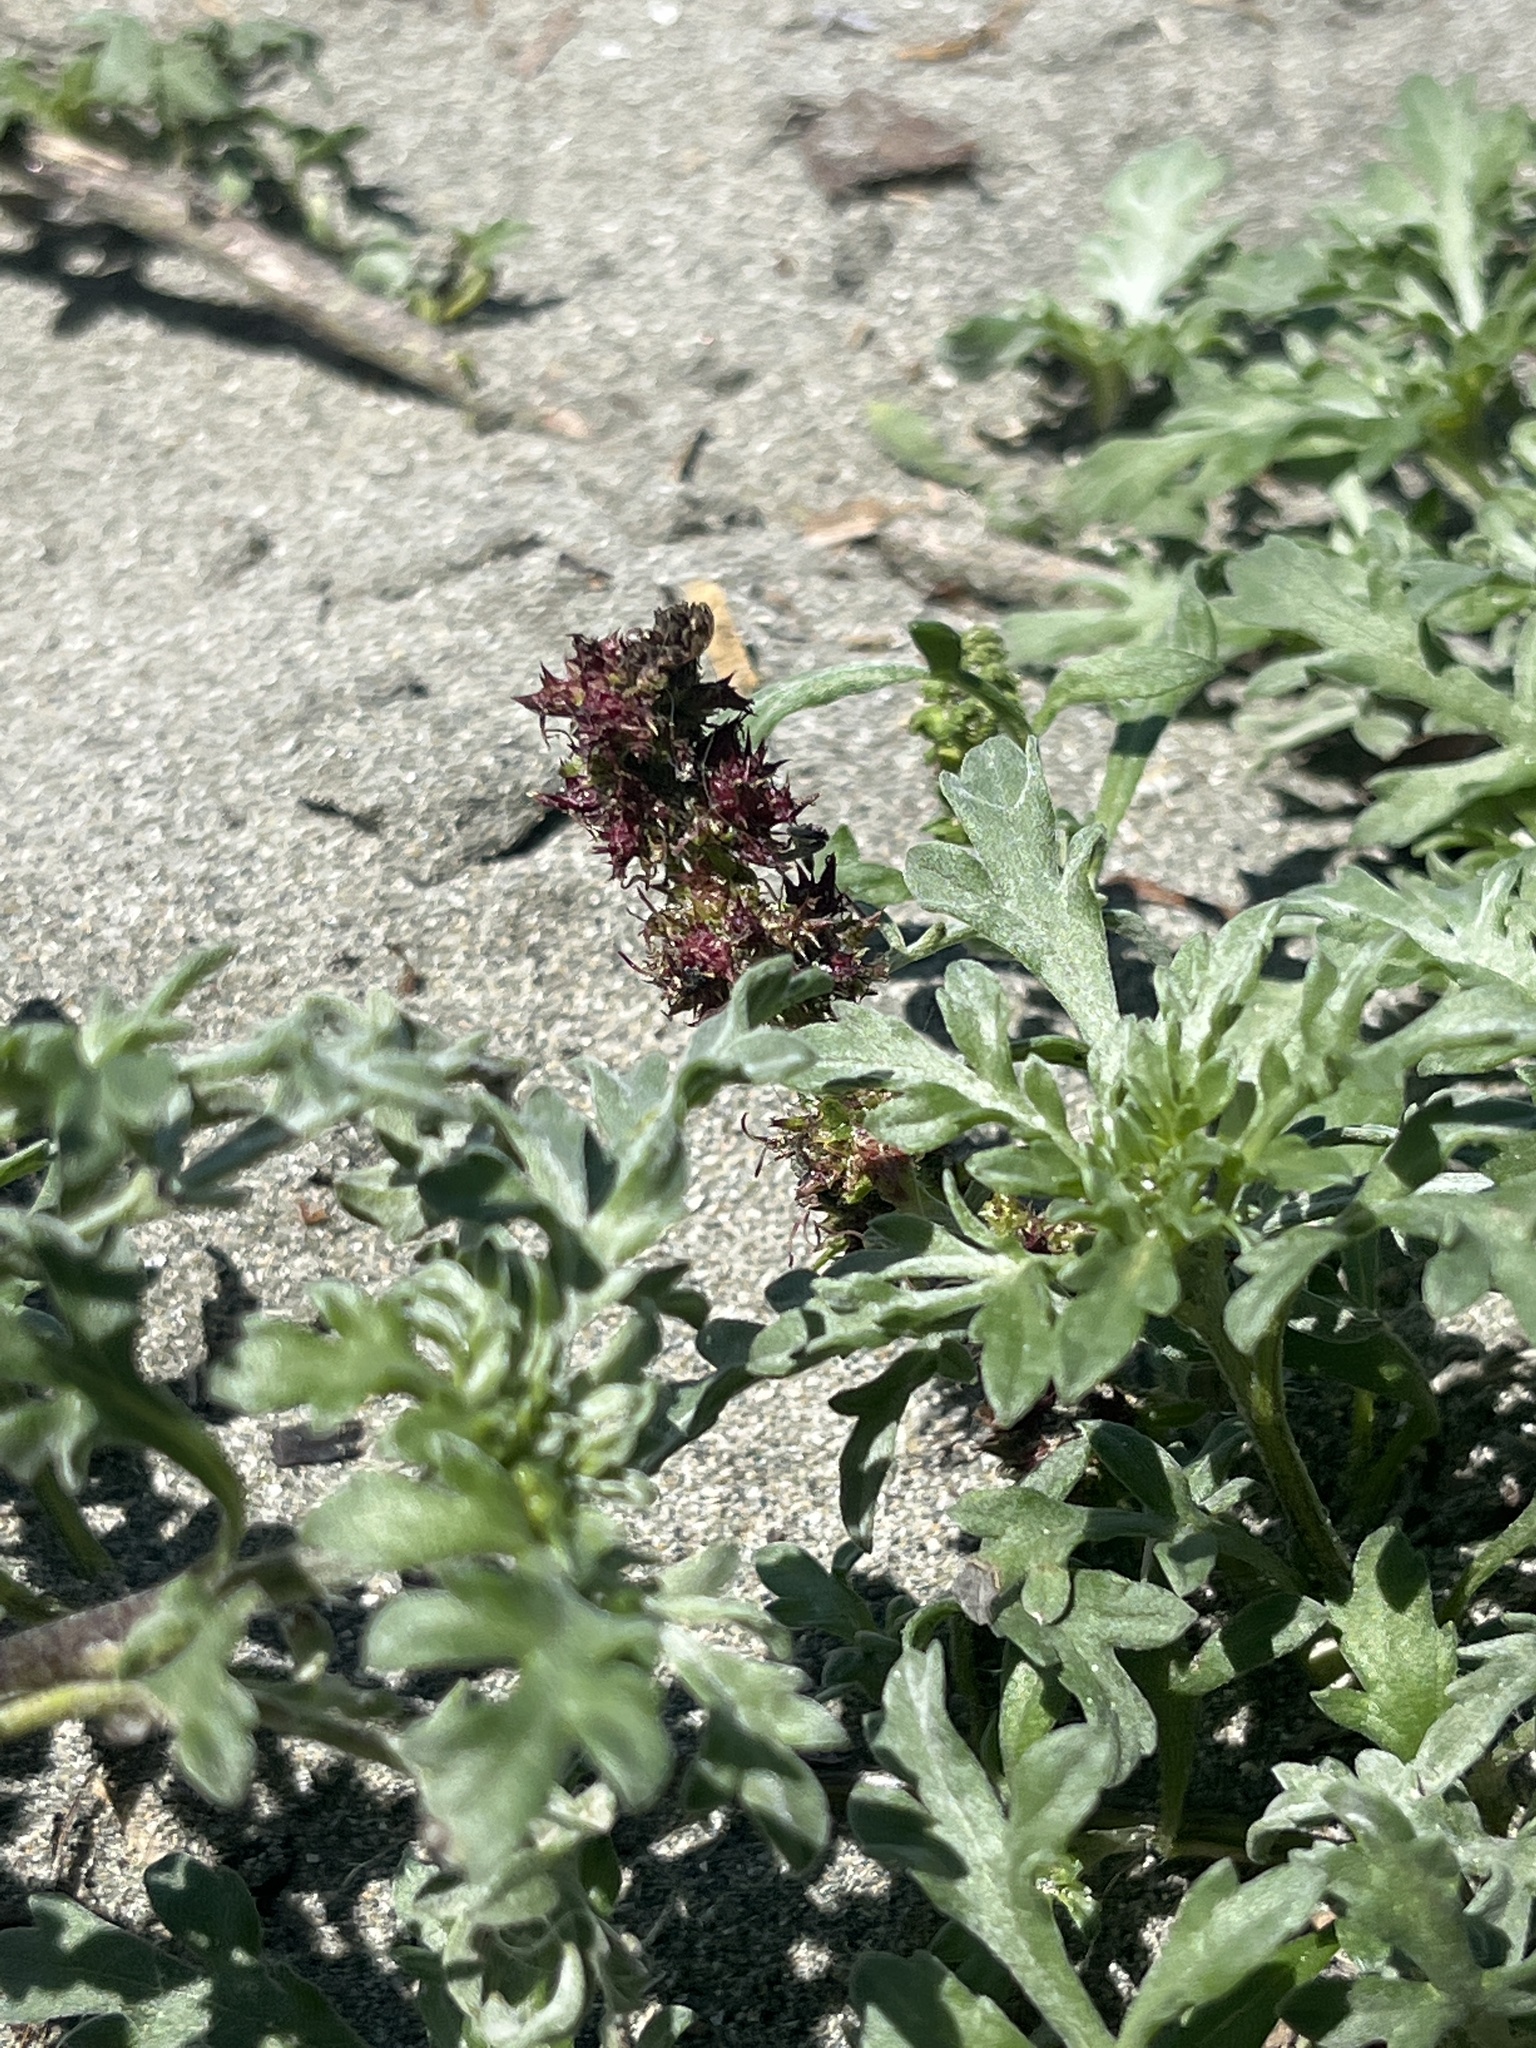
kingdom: Plantae
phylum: Tracheophyta
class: Magnoliopsida
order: Asterales
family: Asteraceae
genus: Ambrosia
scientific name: Ambrosia chamissonis
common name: Beachbur
